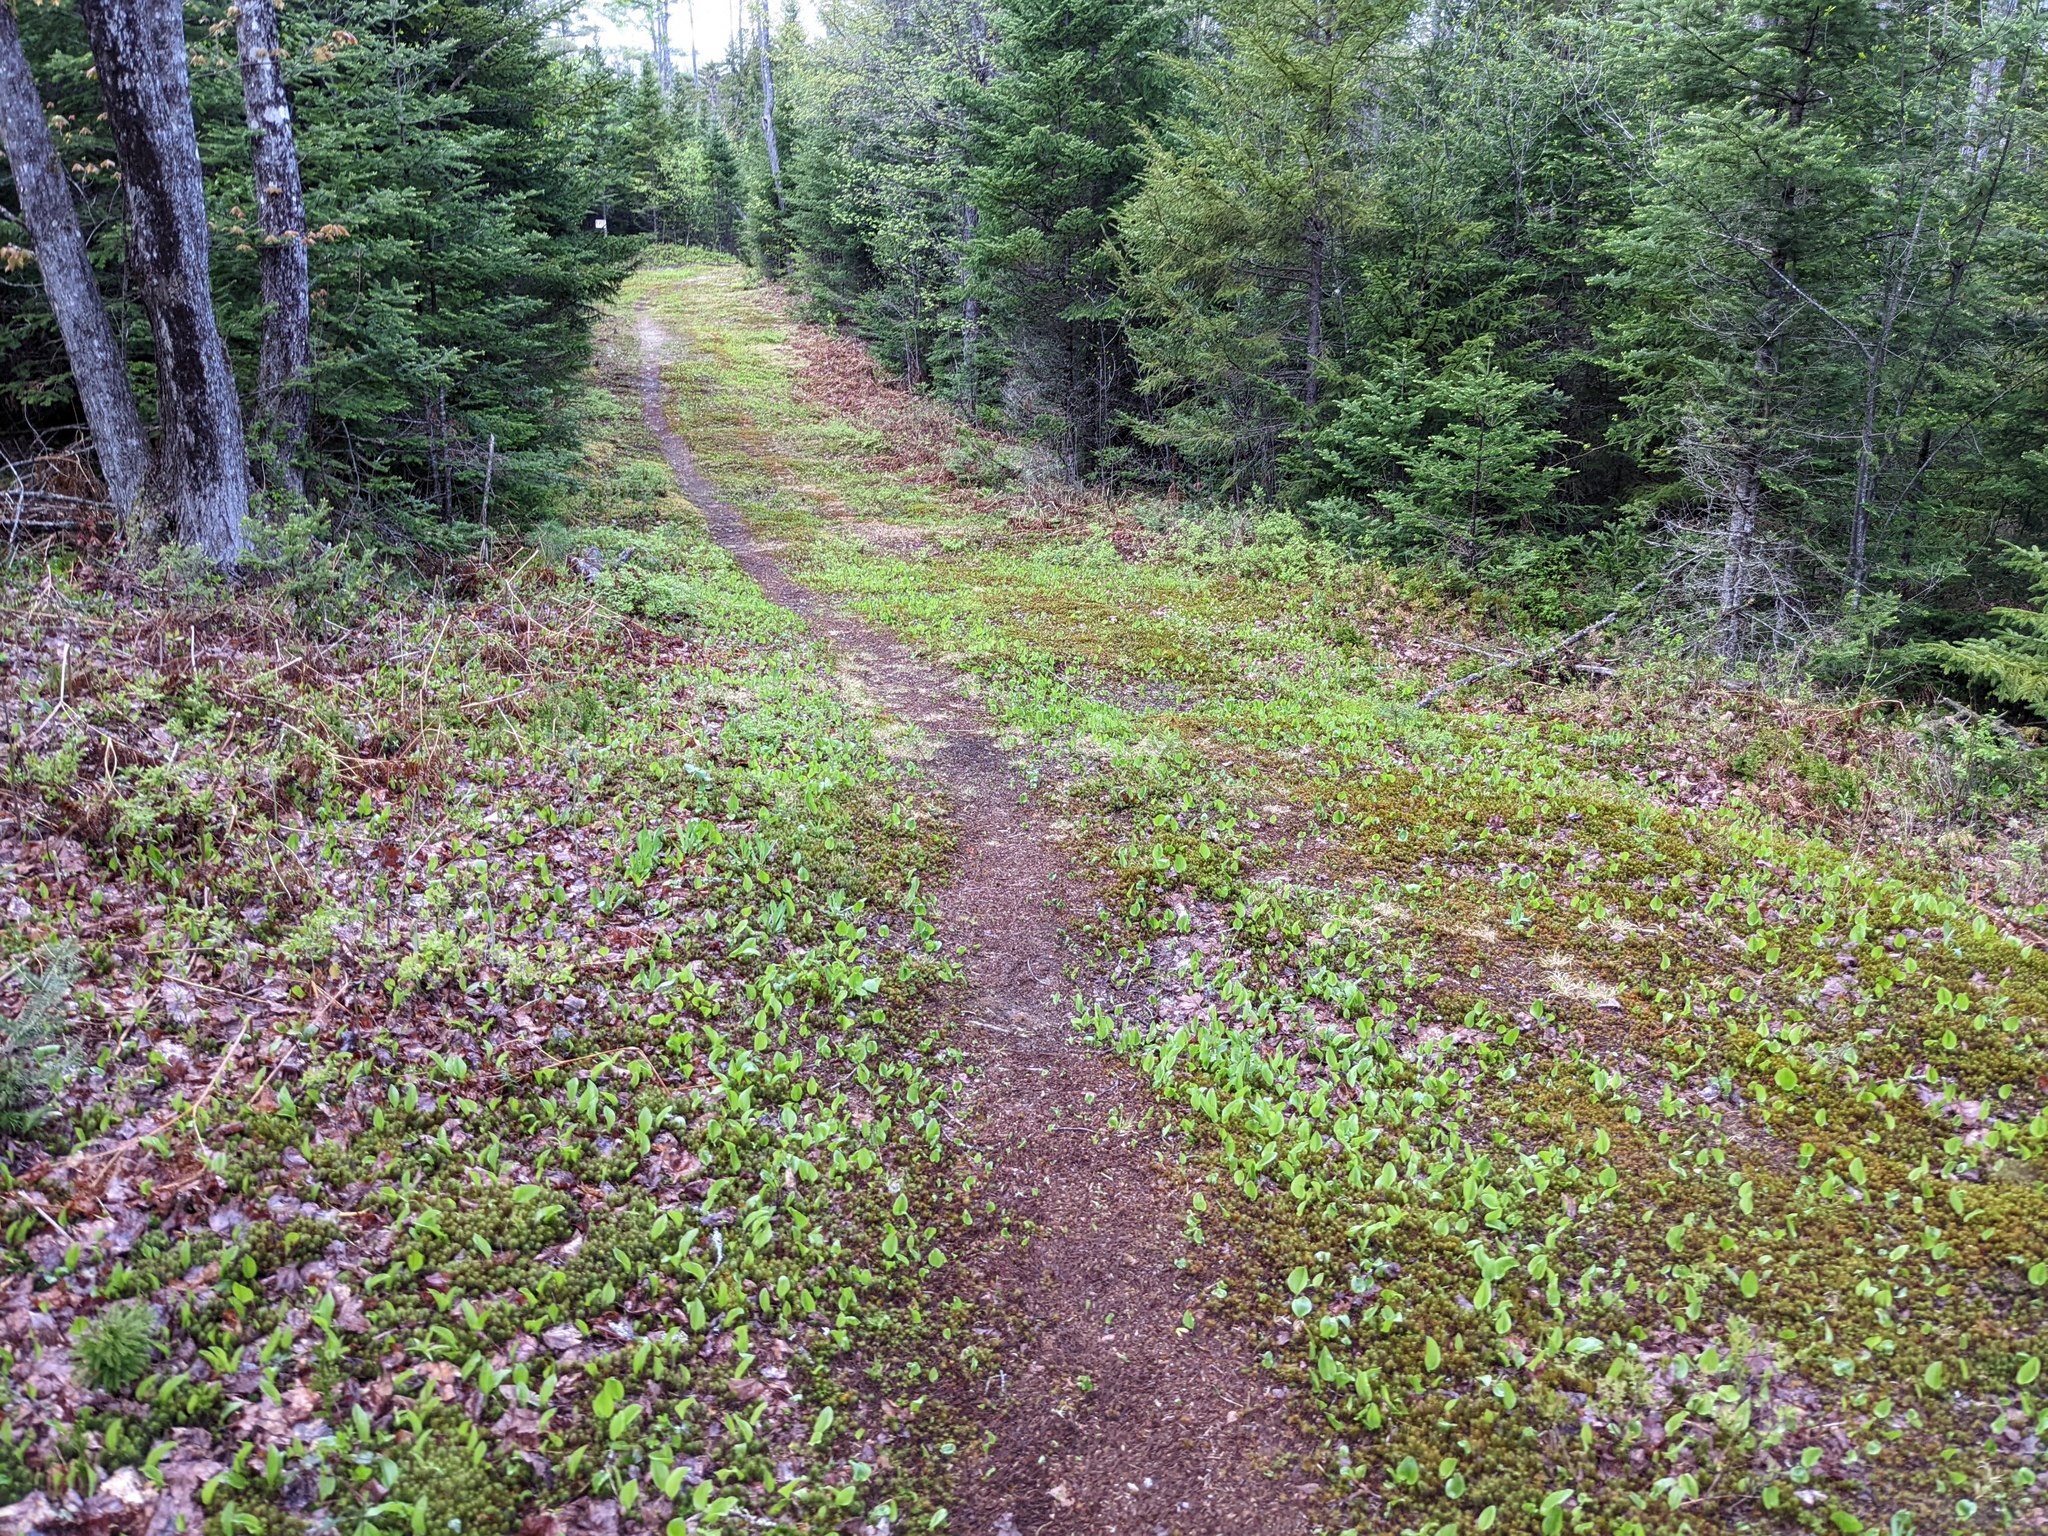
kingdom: Plantae
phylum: Tracheophyta
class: Liliopsida
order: Asparagales
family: Asparagaceae
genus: Maianthemum
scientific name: Maianthemum canadense
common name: False lily-of-the-valley
